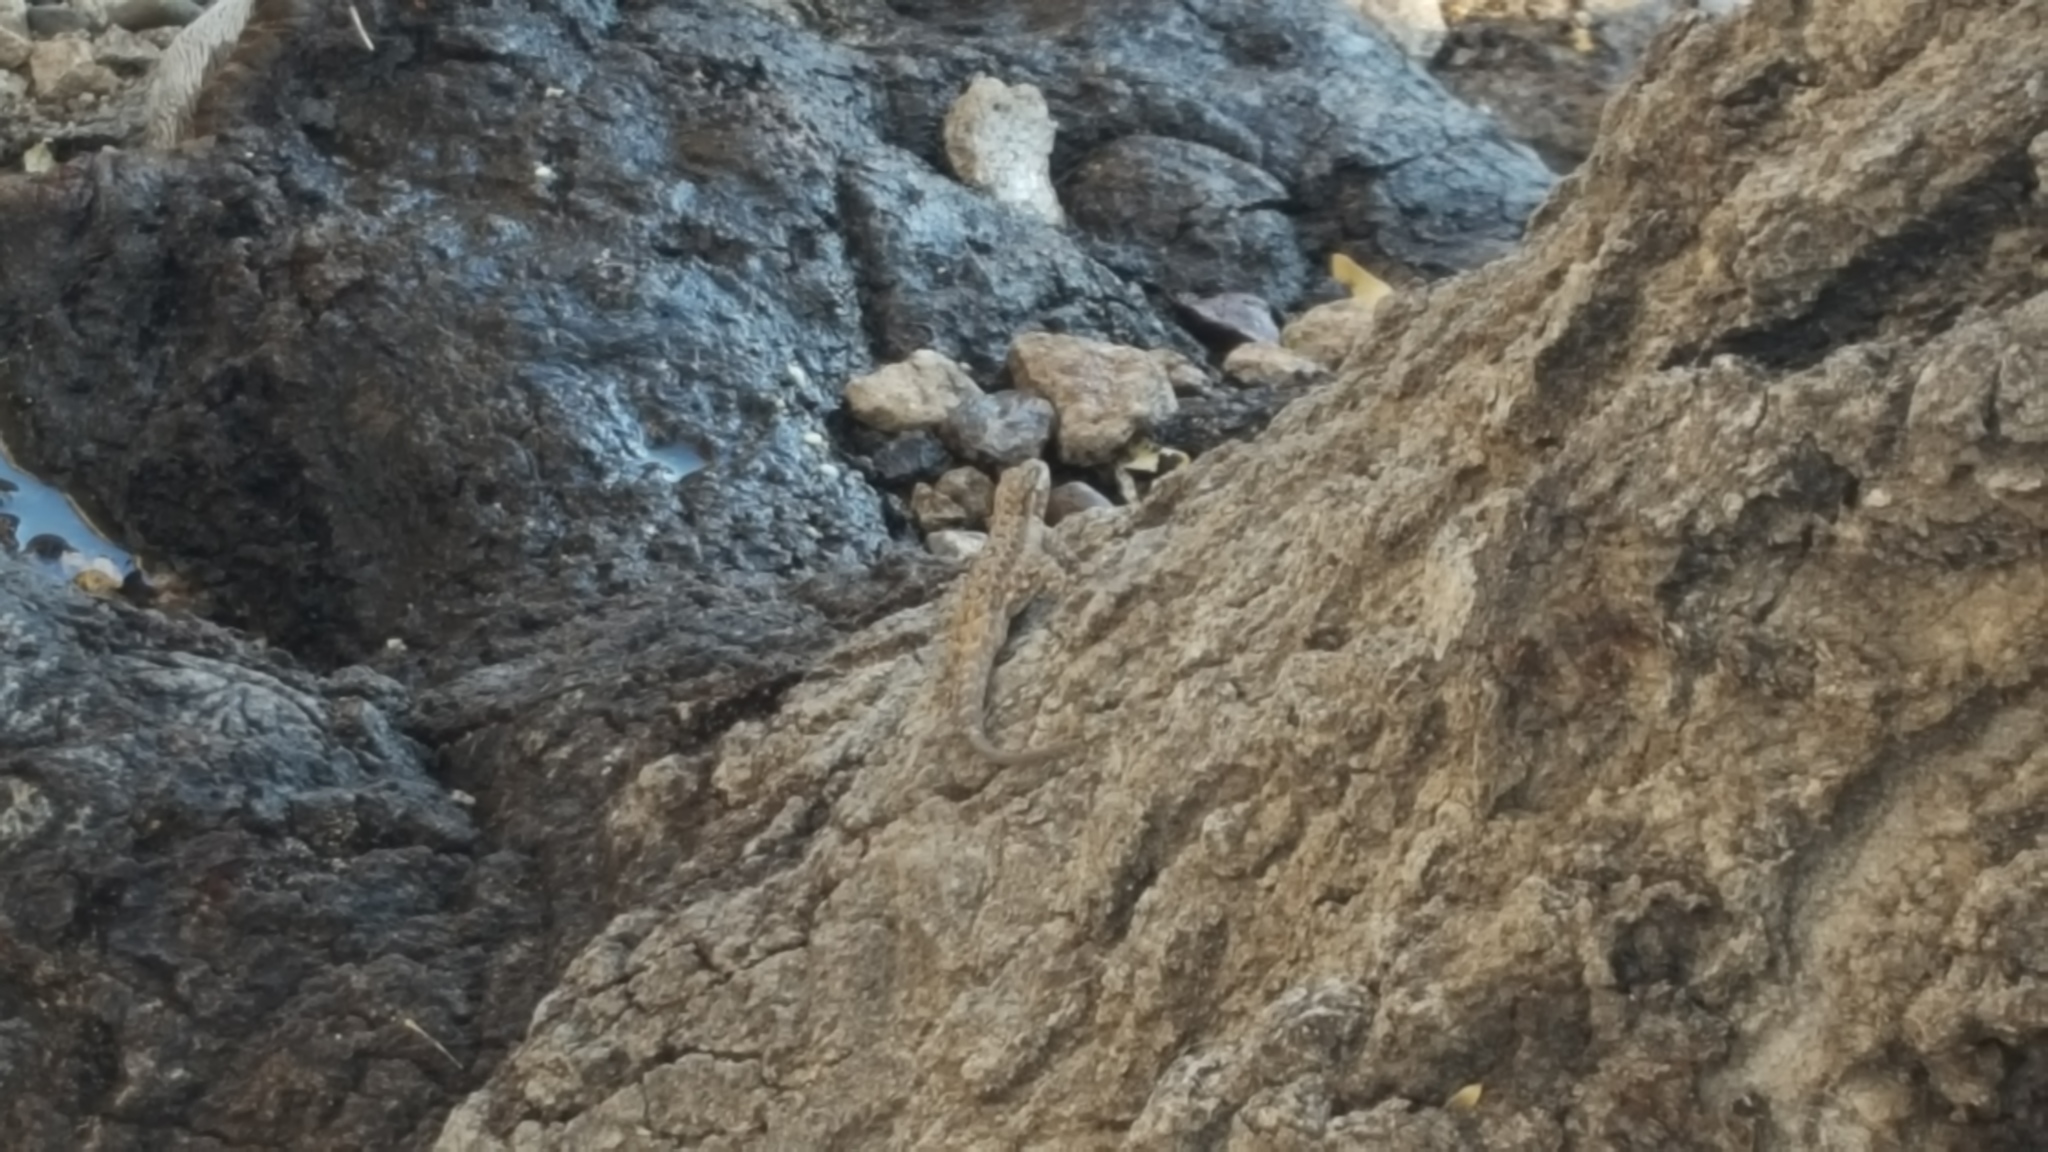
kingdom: Animalia
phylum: Chordata
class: Squamata
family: Phrynosomatidae
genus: Urosaurus
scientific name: Urosaurus ornatus
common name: Ornate tree lizard
